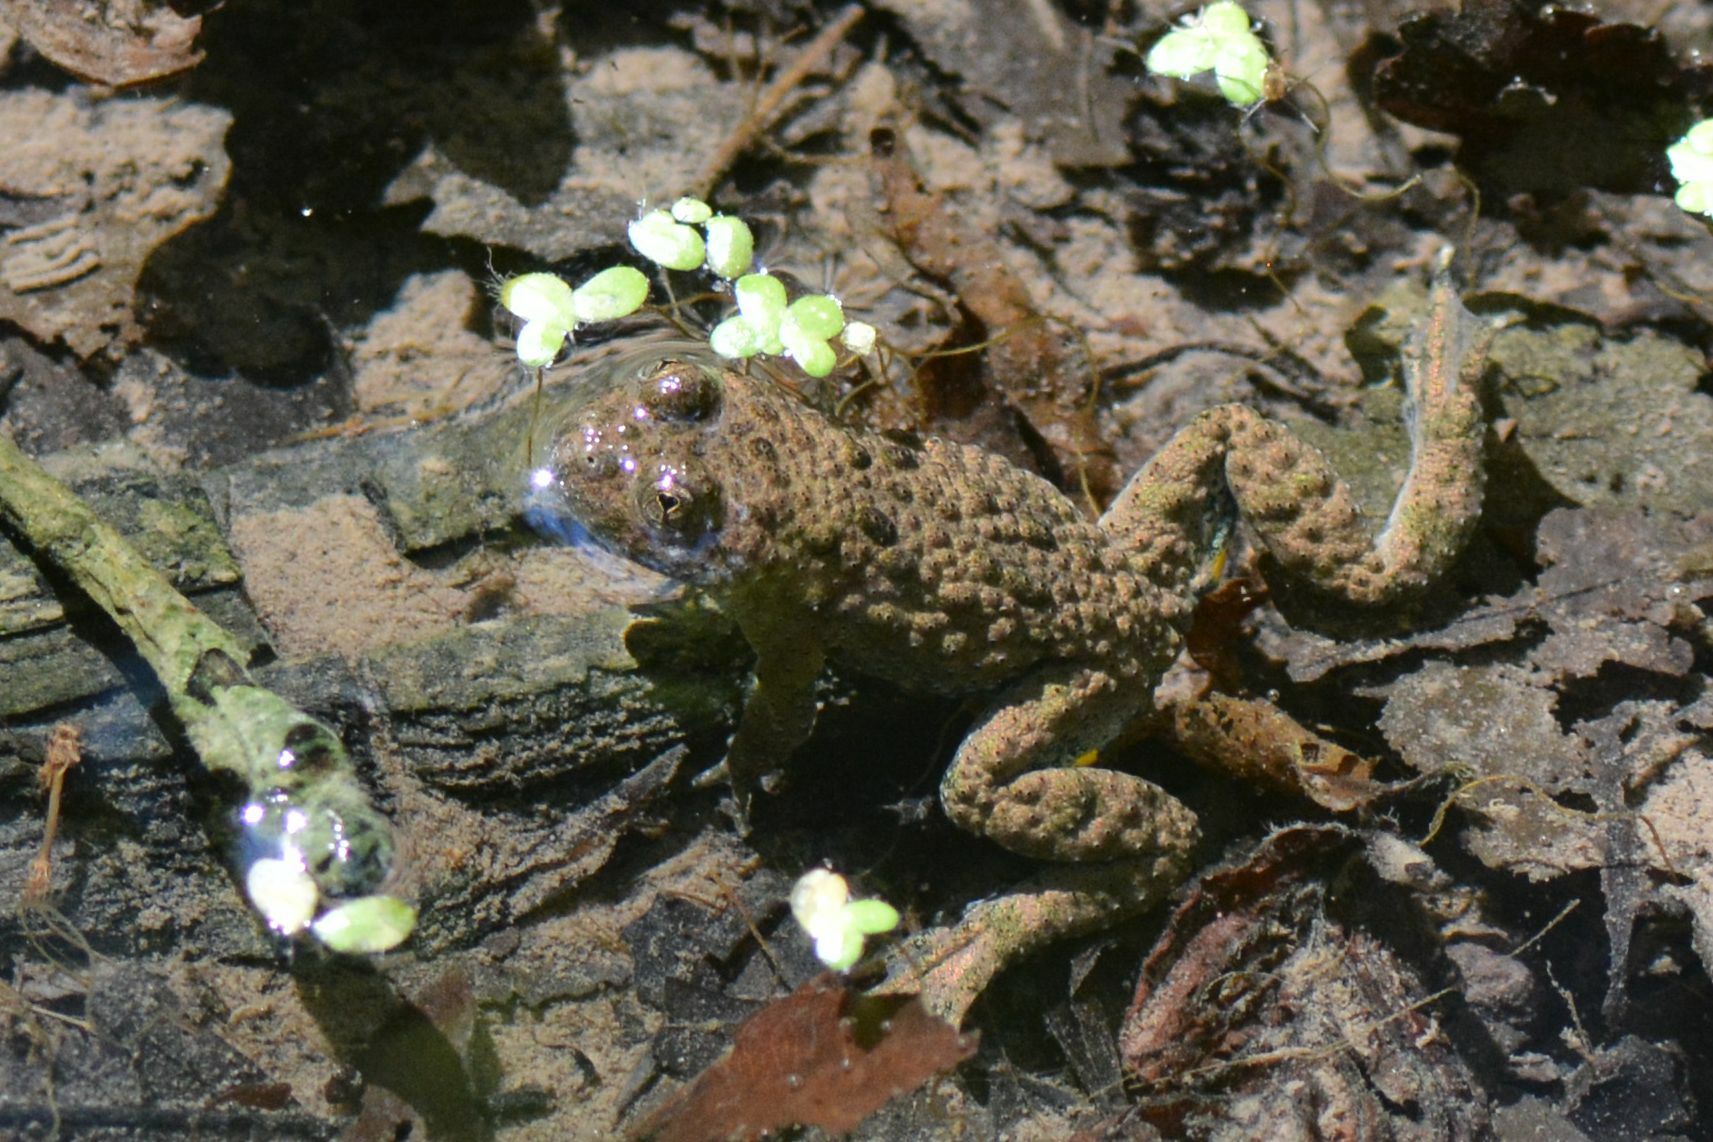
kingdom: Animalia
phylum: Chordata
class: Amphibia
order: Anura
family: Bombinatoridae
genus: Bombina
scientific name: Bombina variegata
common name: Yellow-bellied toad
